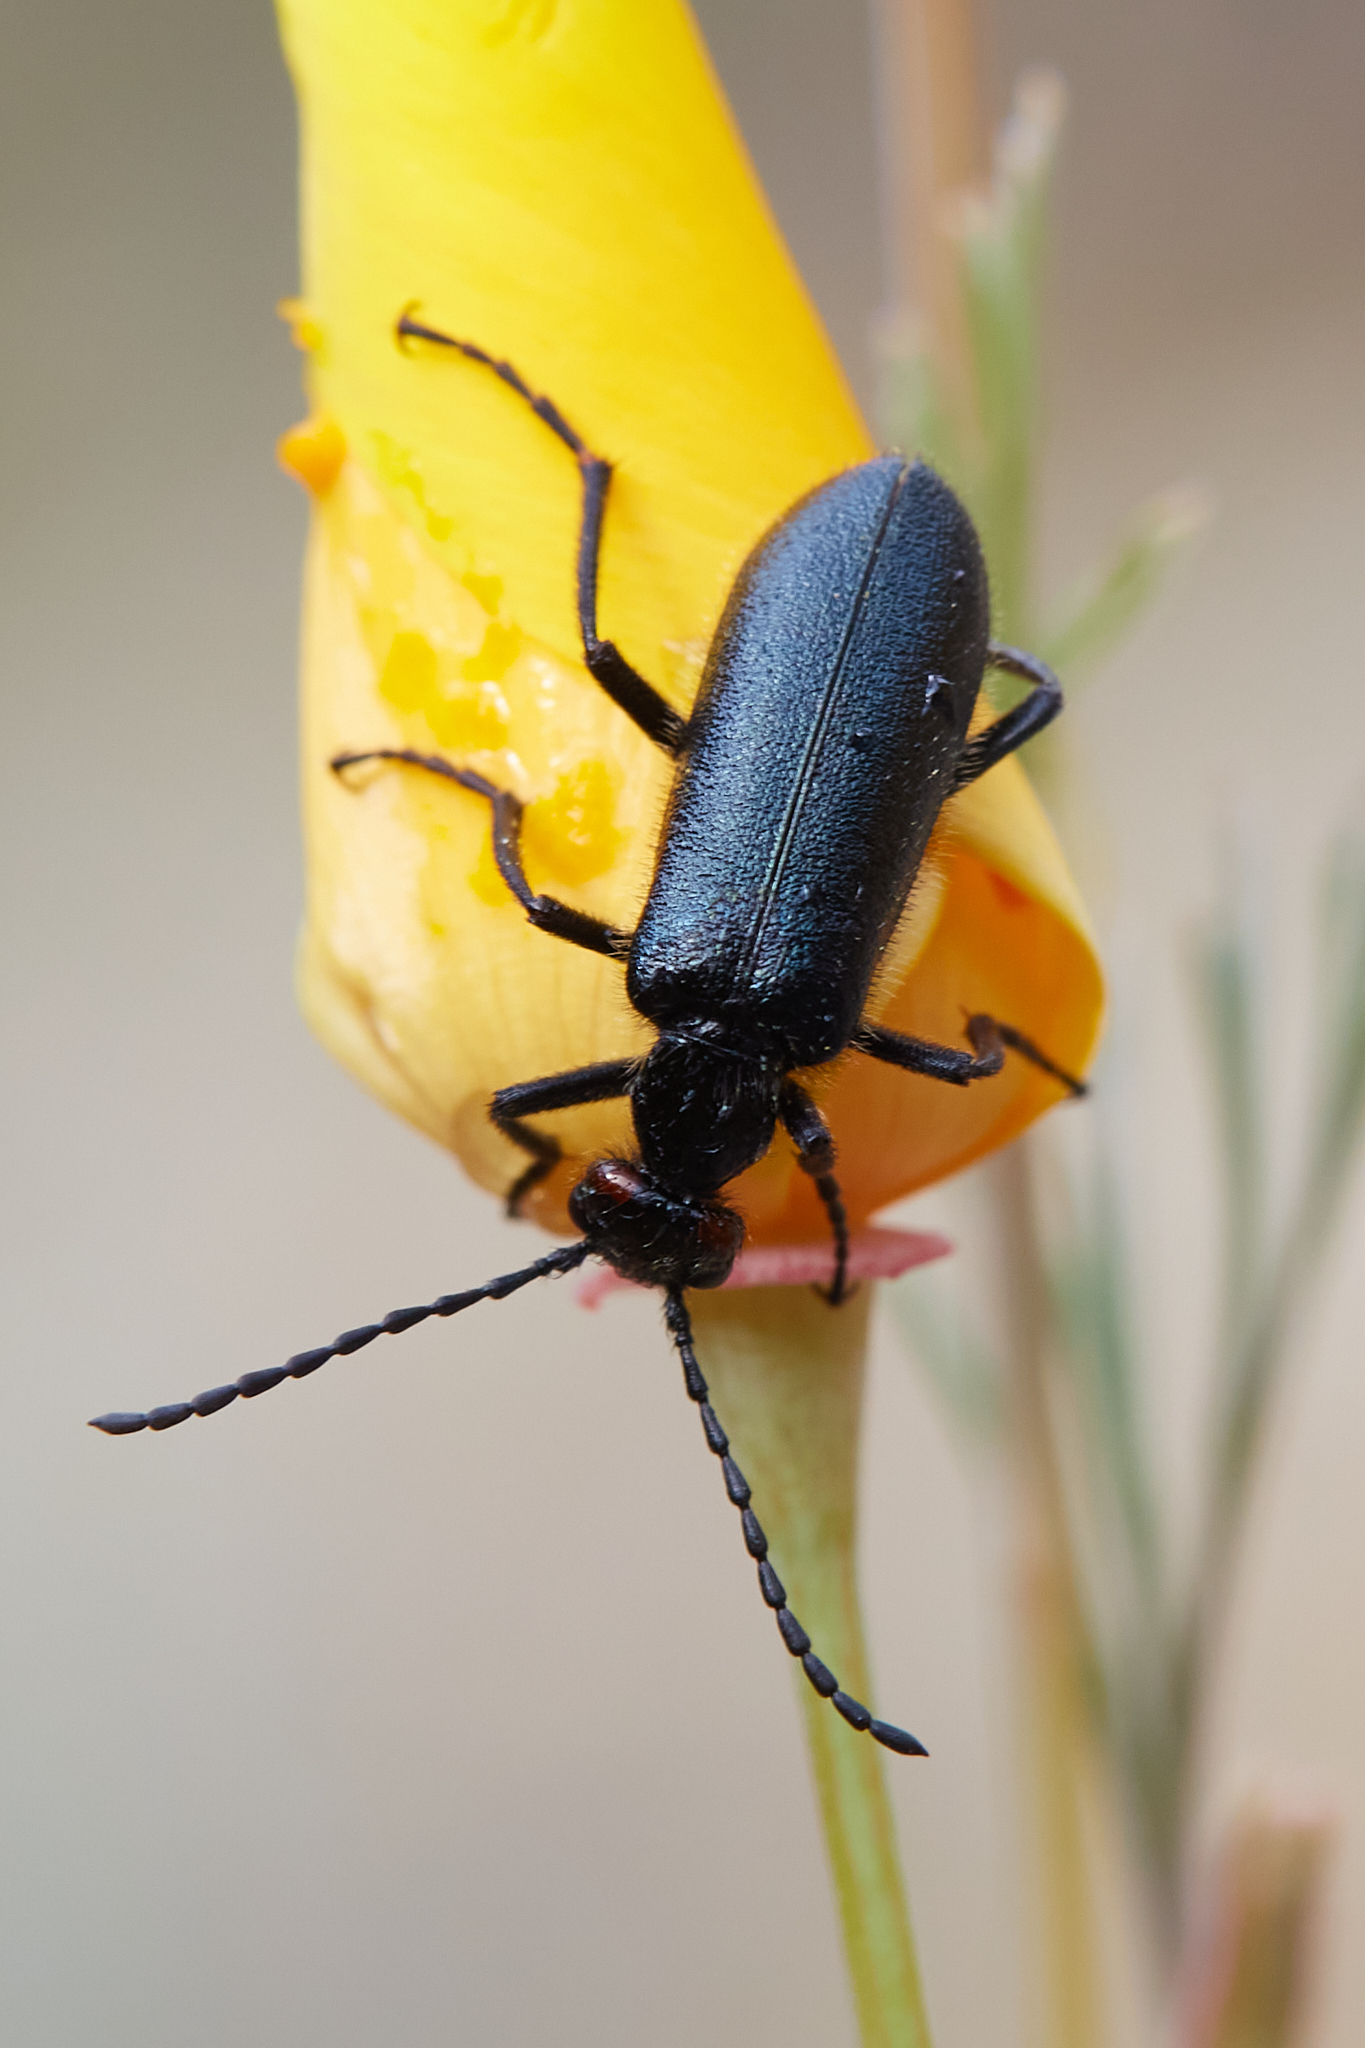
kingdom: Animalia
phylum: Arthropoda
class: Insecta
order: Coleoptera
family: Meloidae
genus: Lytta
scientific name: Lytta auriculata
